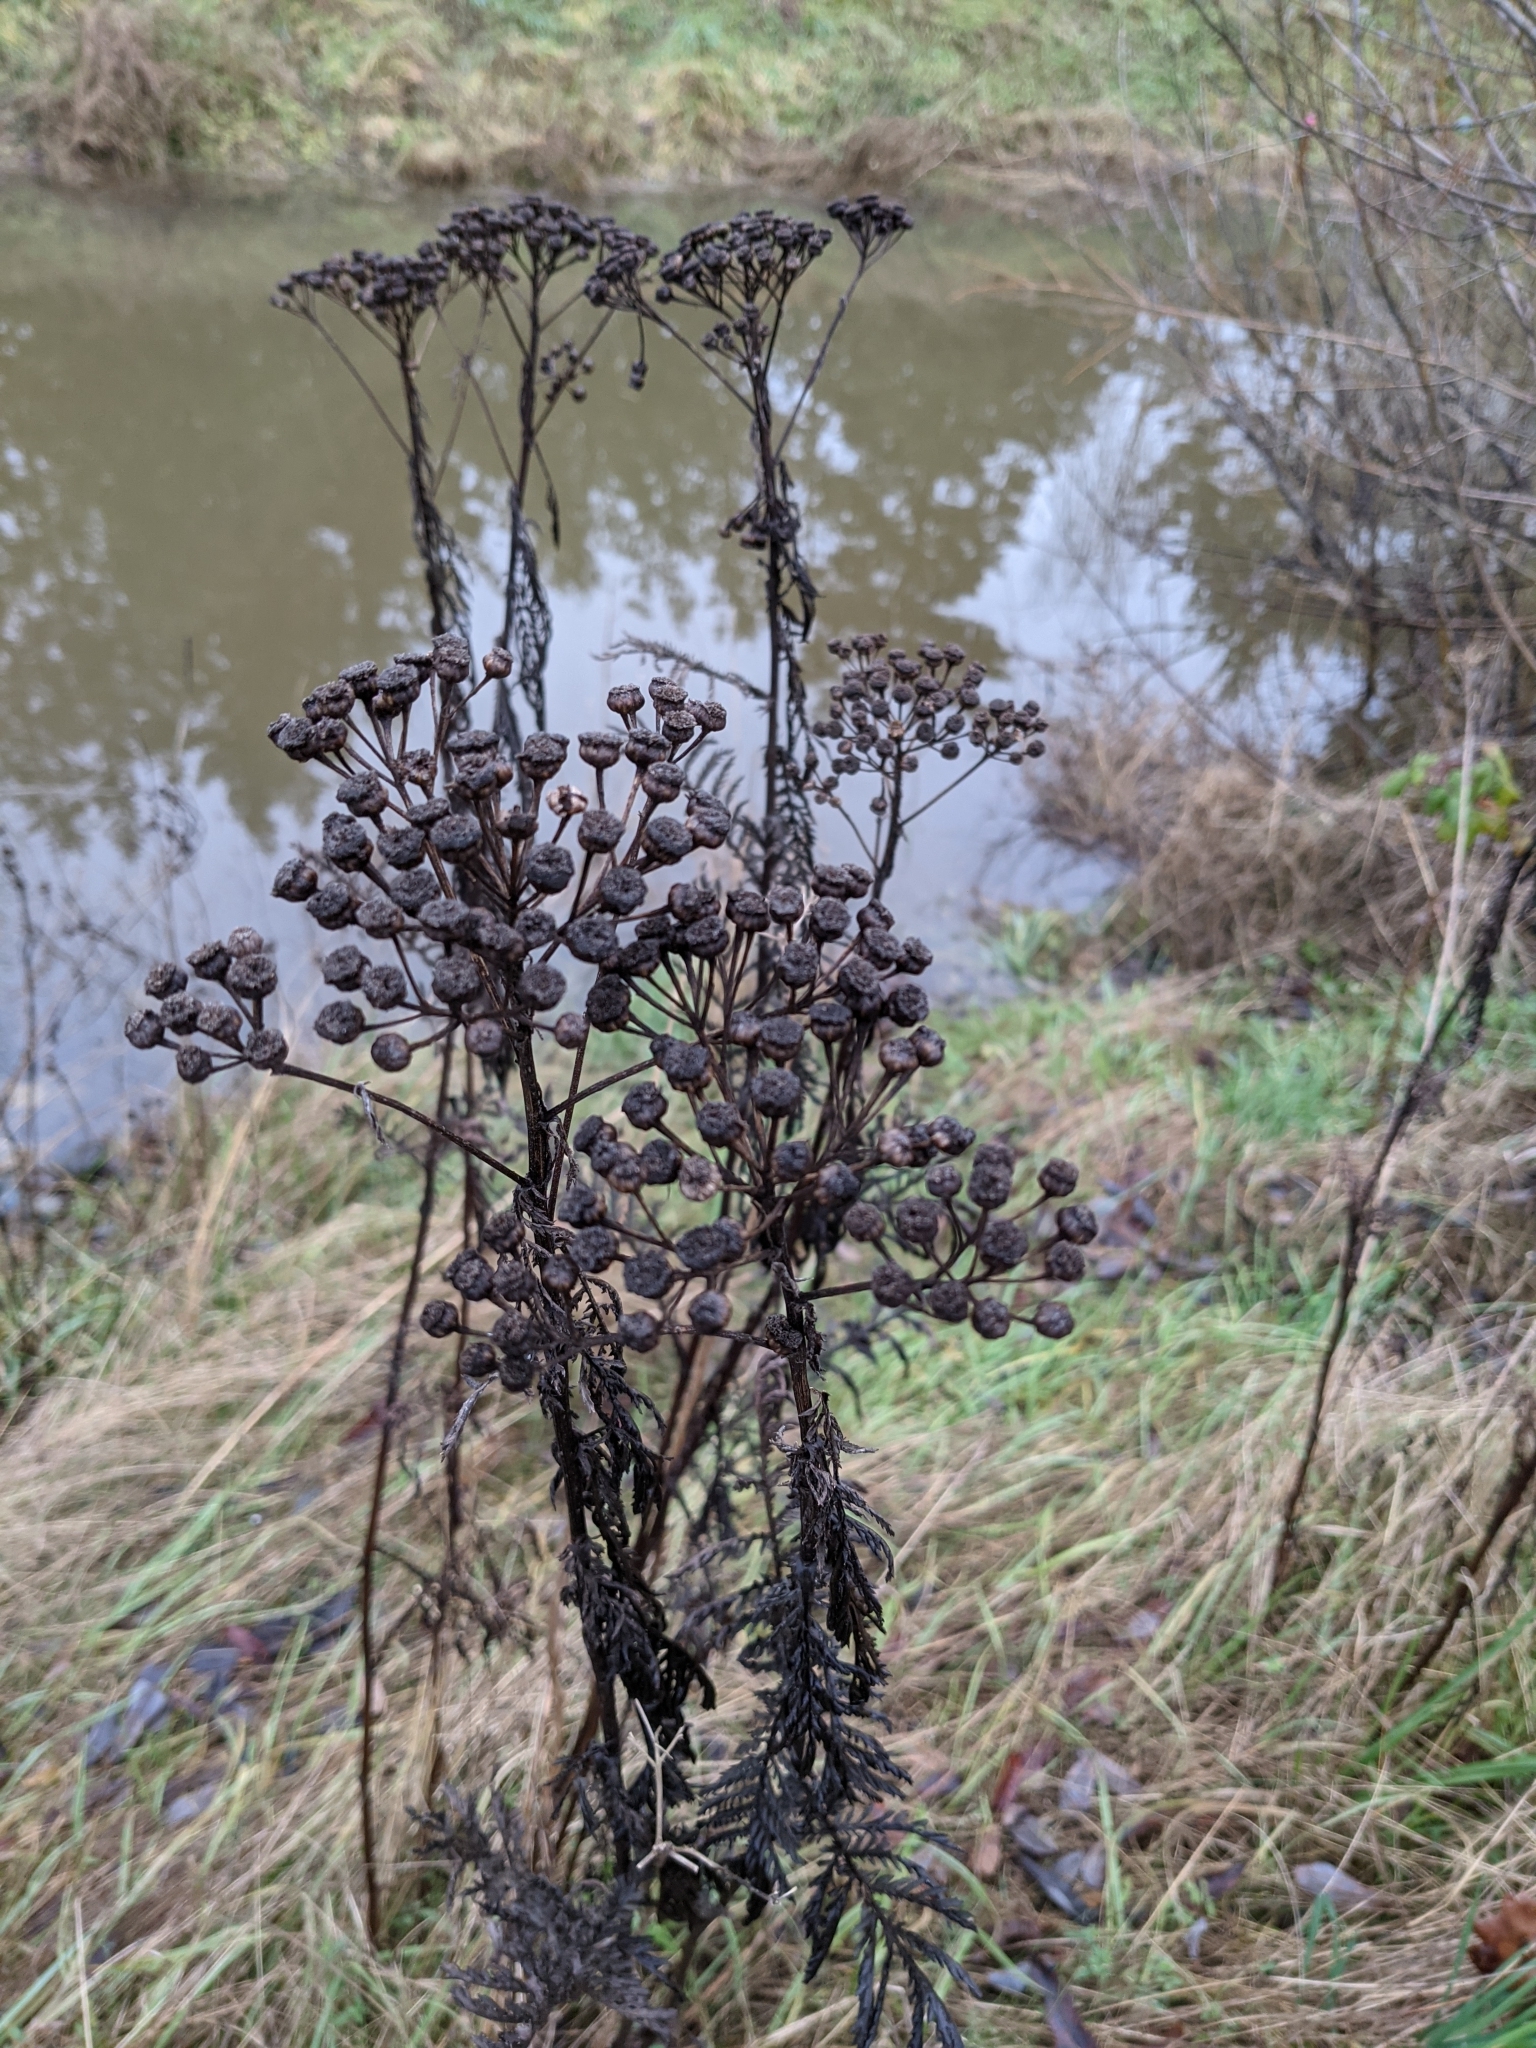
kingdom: Plantae
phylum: Tracheophyta
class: Magnoliopsida
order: Asterales
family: Asteraceae
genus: Tanacetum
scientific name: Tanacetum vulgare
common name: Common tansy
